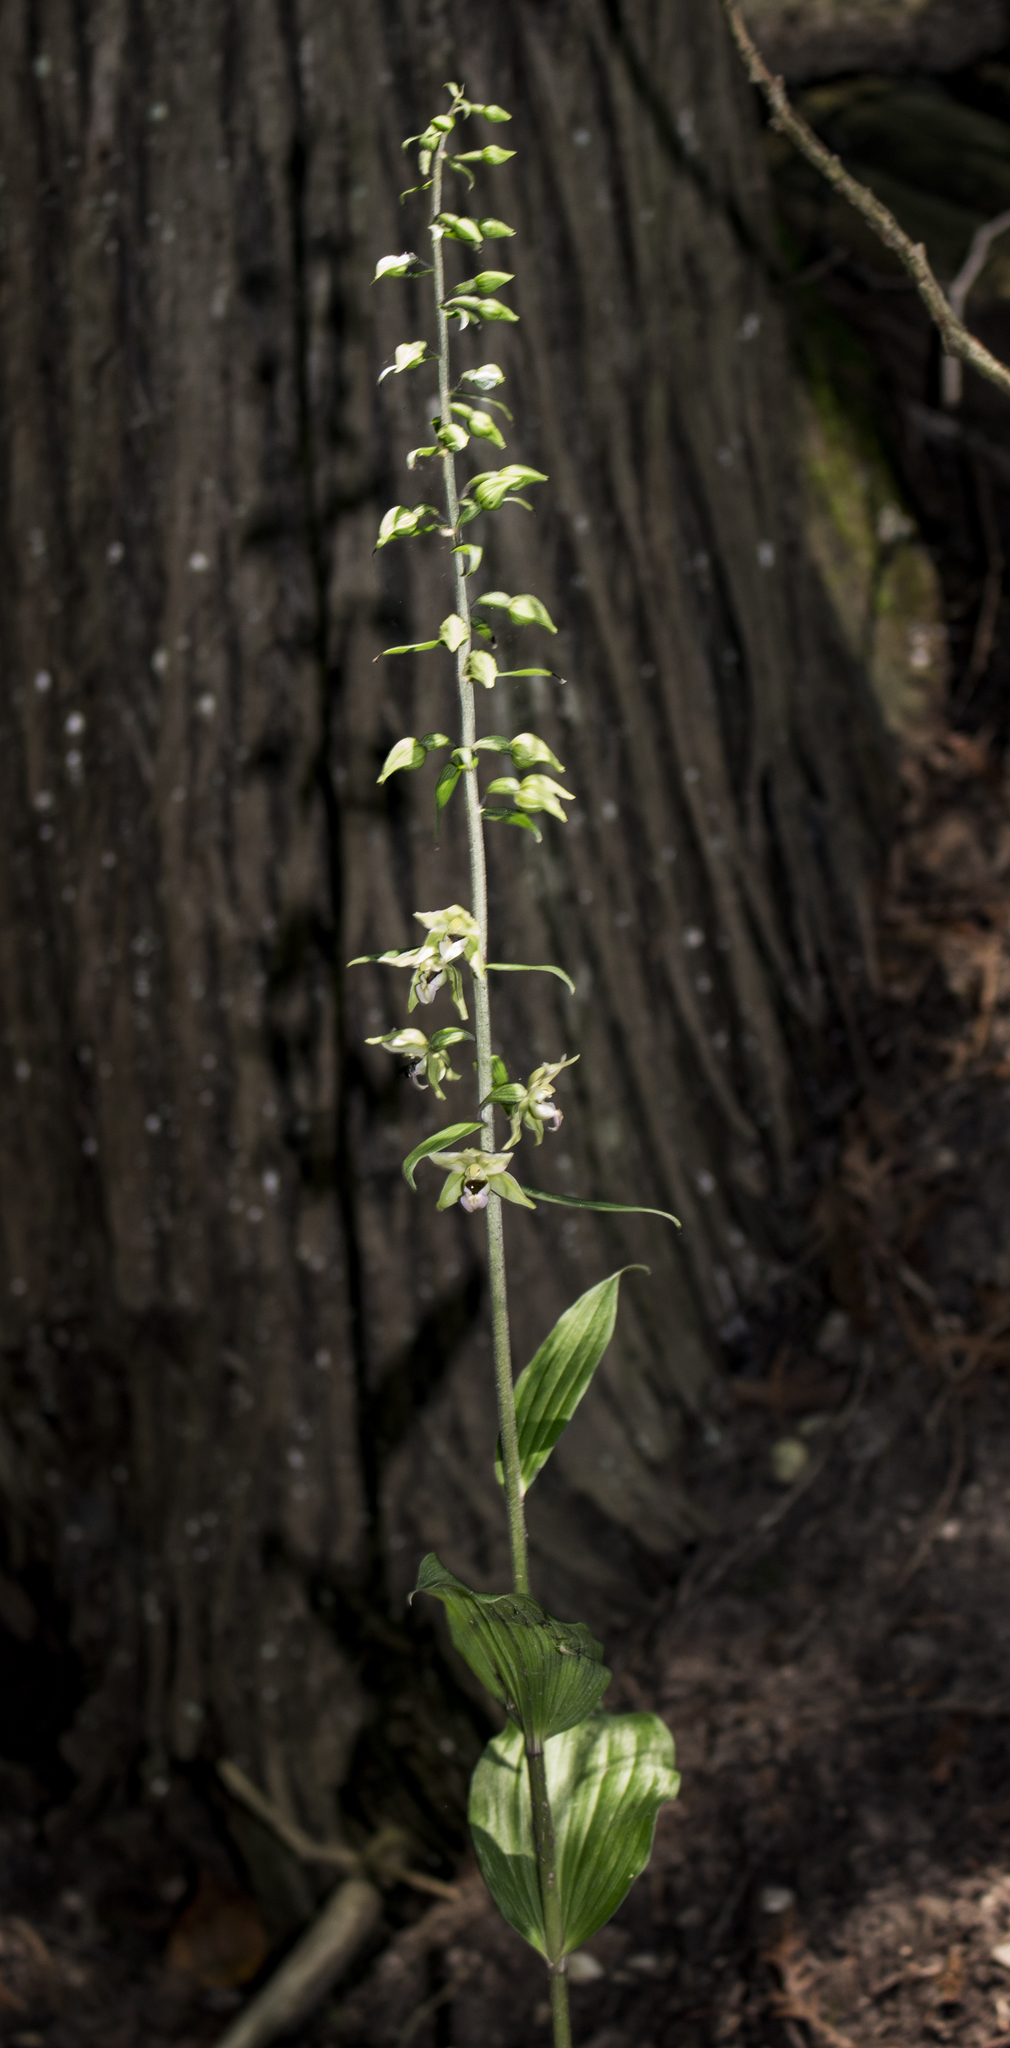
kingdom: Plantae
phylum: Tracheophyta
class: Liliopsida
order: Asparagales
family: Orchidaceae
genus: Epipactis
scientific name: Epipactis helleborine
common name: Broad-leaved helleborine
